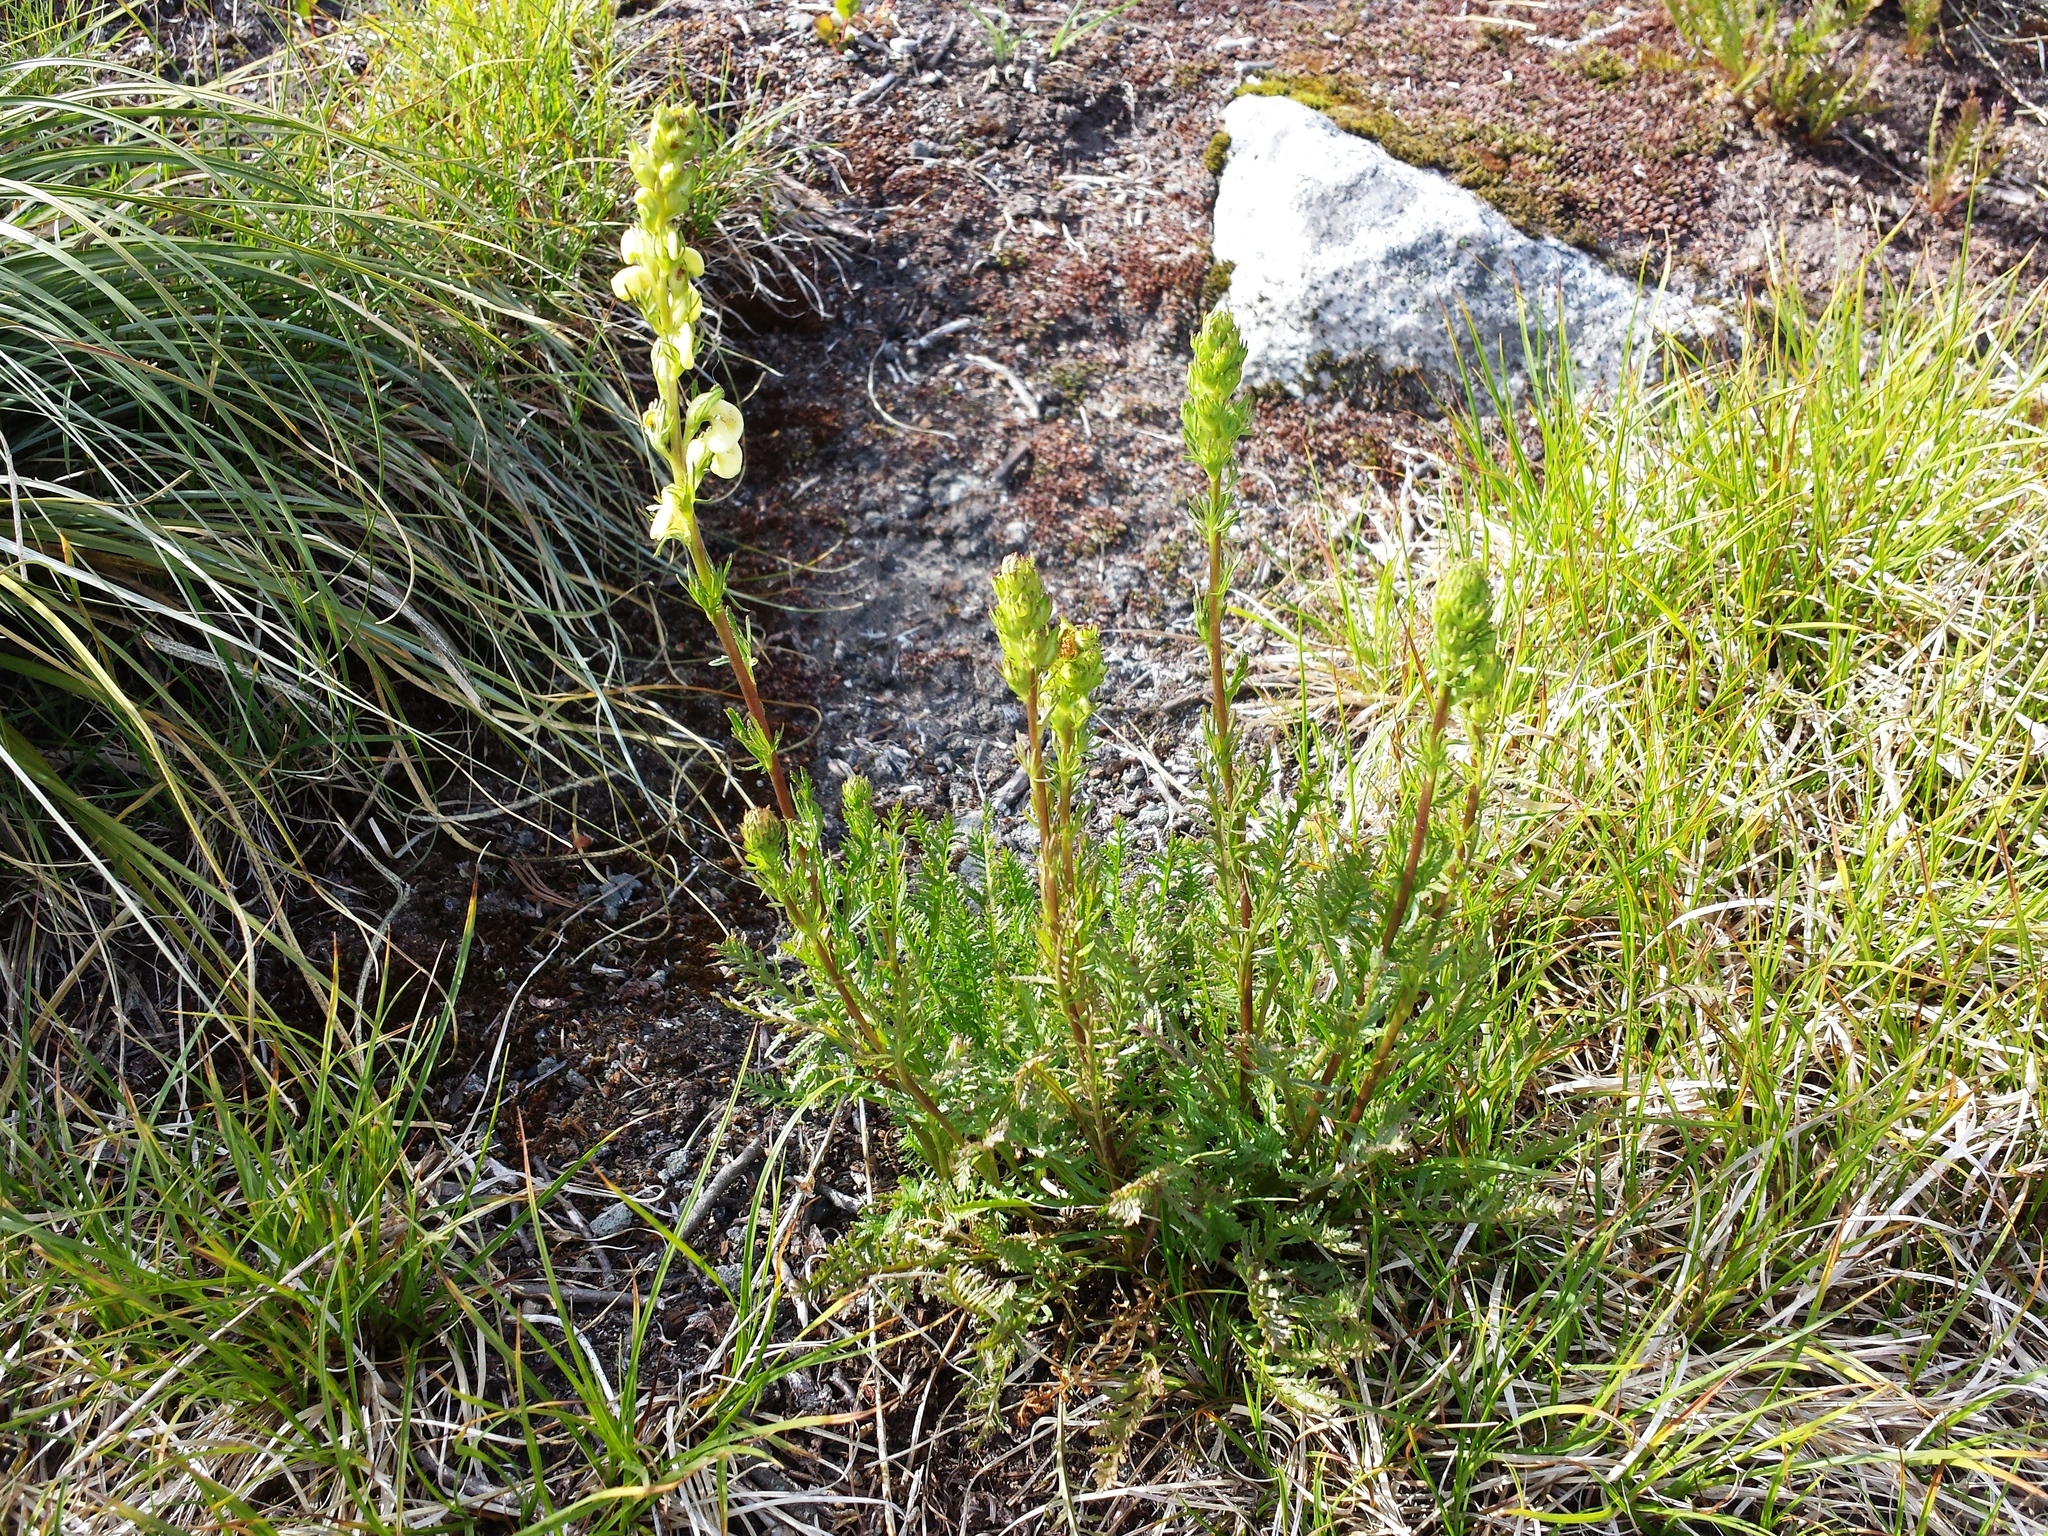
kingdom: Plantae
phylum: Tracheophyta
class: Magnoliopsida
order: Lamiales
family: Orobanchaceae
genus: Pedicularis
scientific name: Pedicularis contorta
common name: Coiled lousewort
